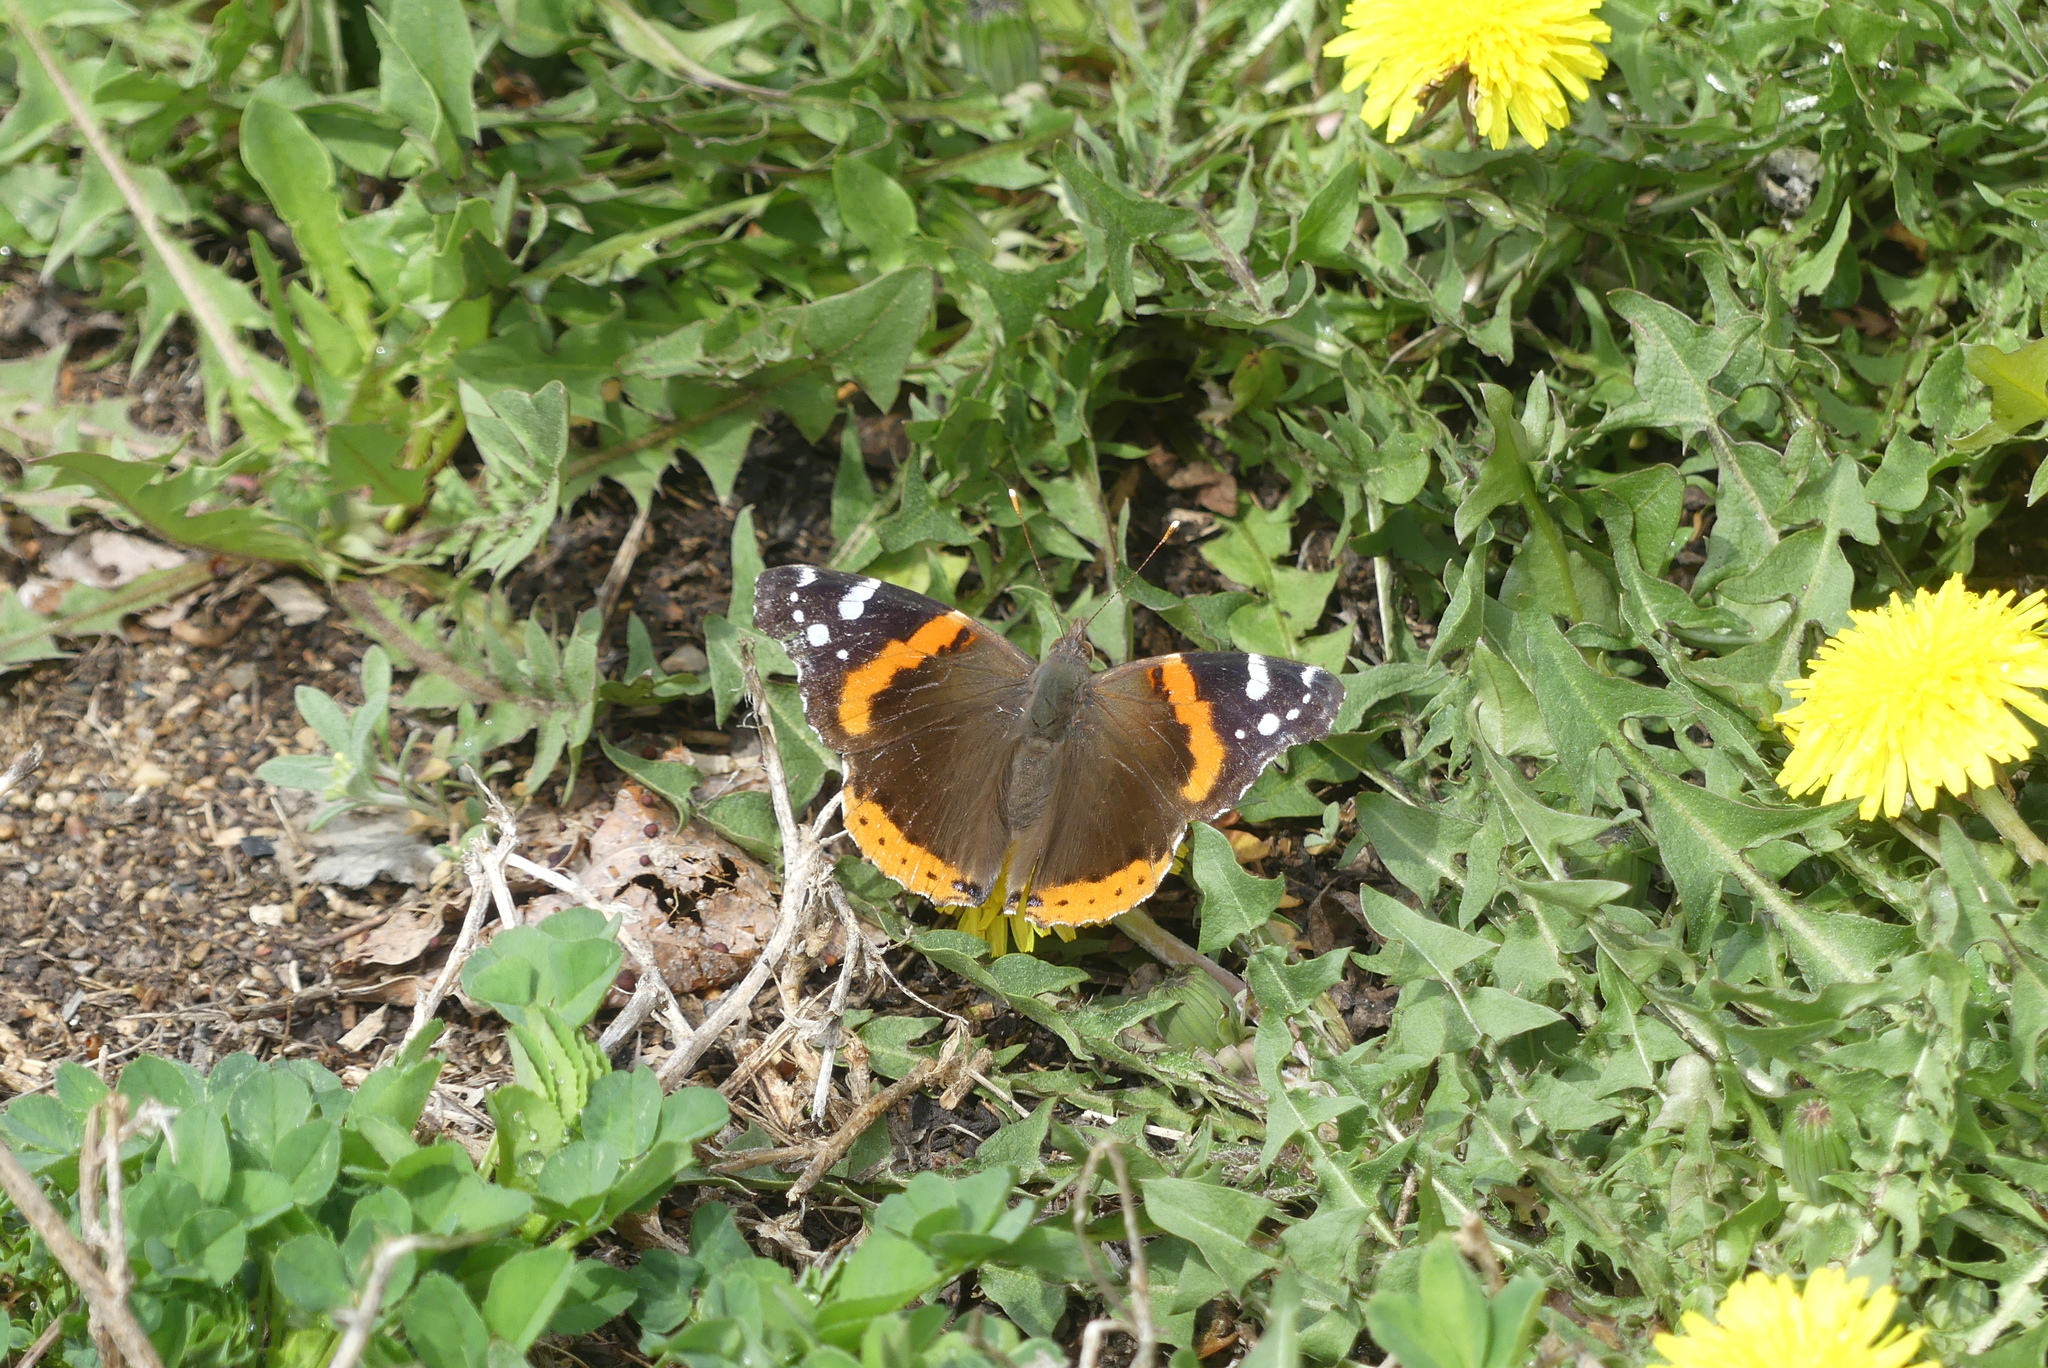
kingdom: Animalia
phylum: Arthropoda
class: Insecta
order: Lepidoptera
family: Nymphalidae
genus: Vanessa
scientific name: Vanessa atalanta
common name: Red admiral
